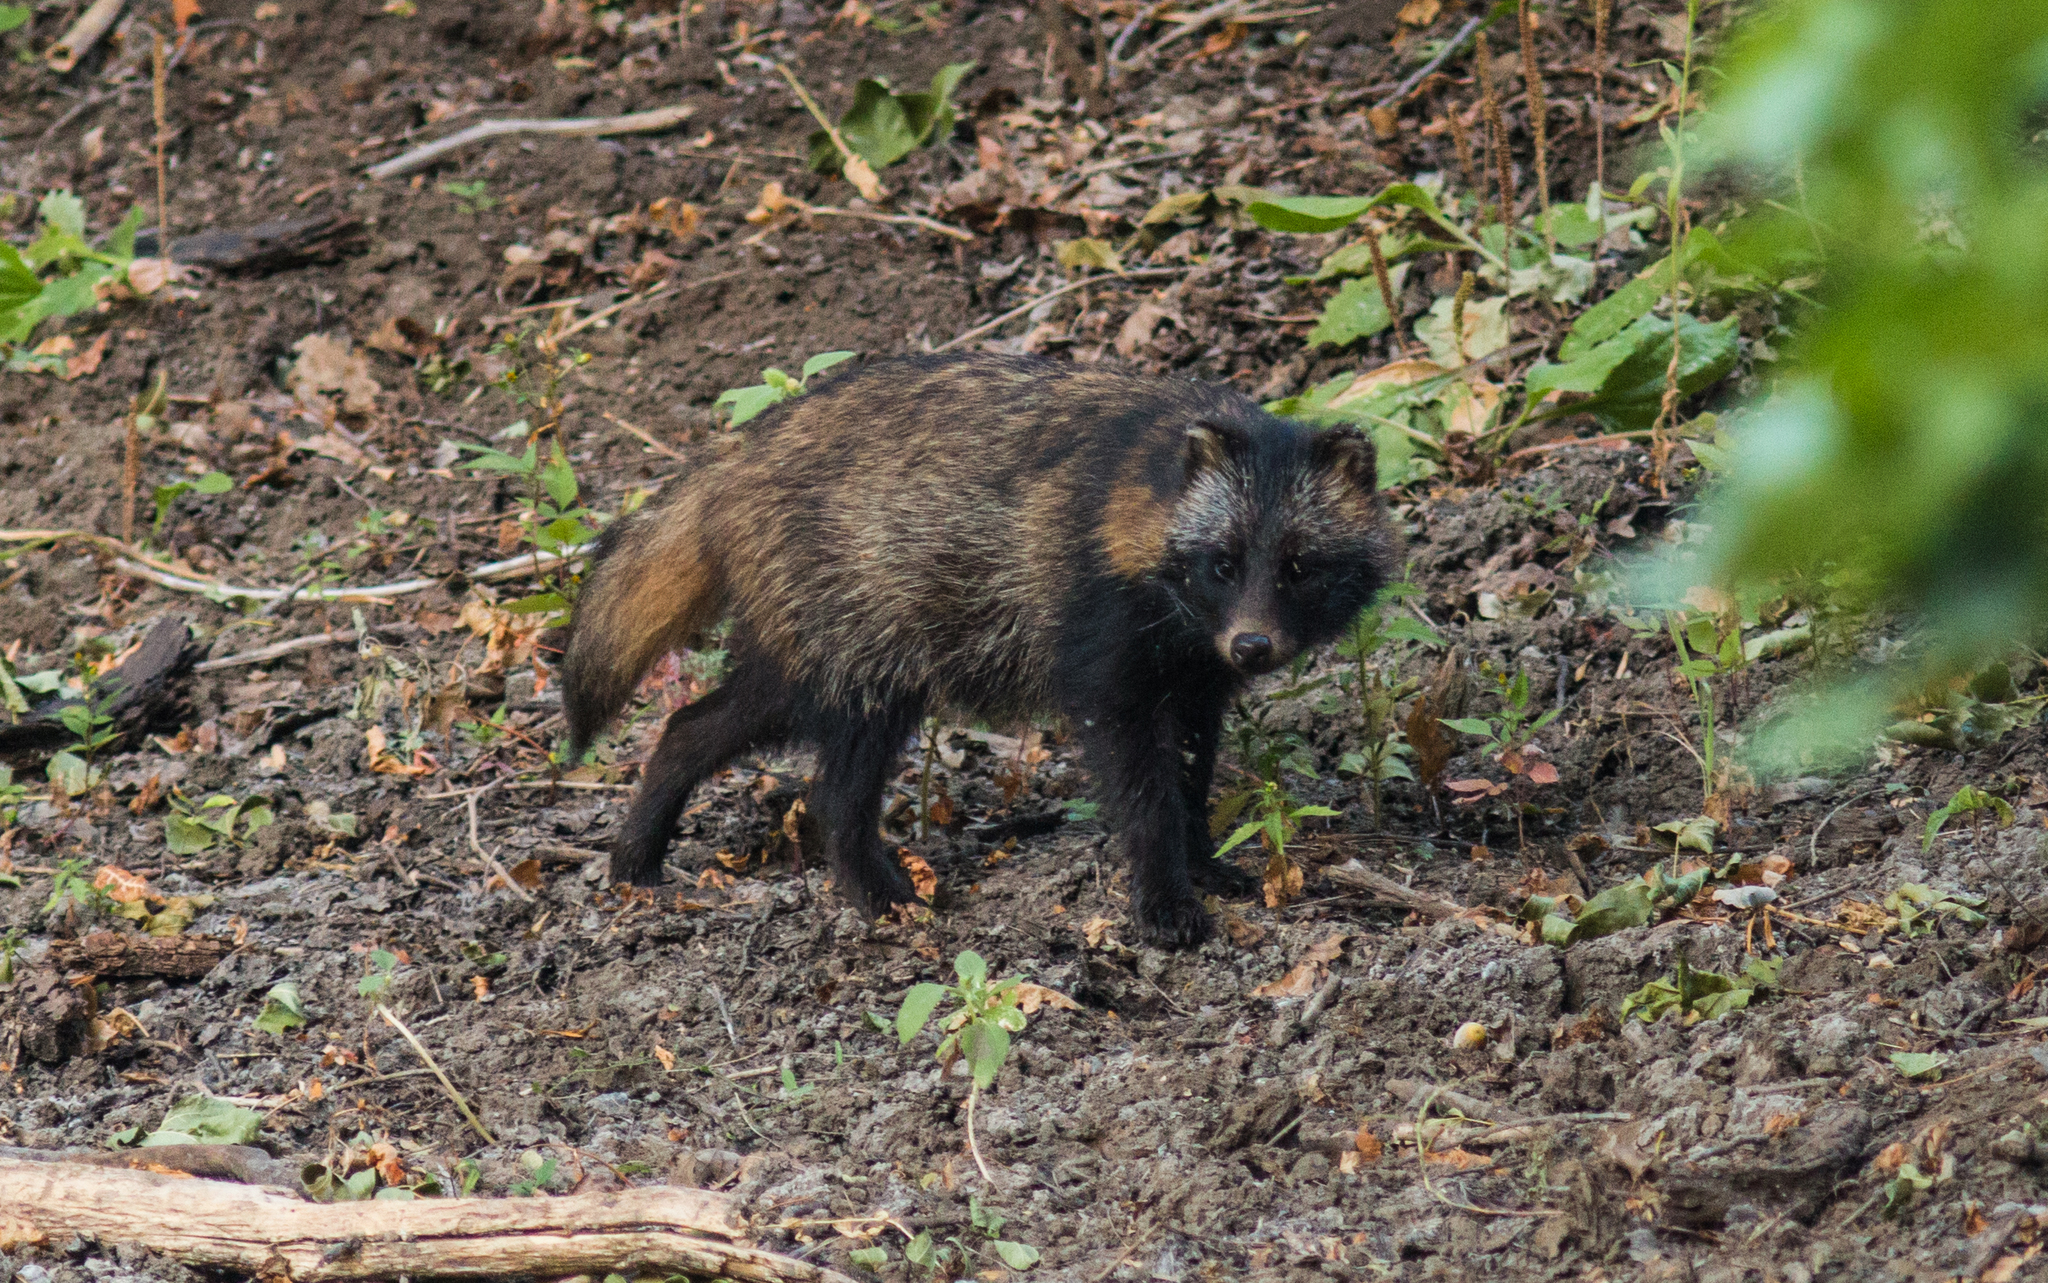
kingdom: Animalia
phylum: Chordata
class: Mammalia
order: Carnivora
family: Canidae
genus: Nyctereutes
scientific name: Nyctereutes procyonoides
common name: Raccoon dog
